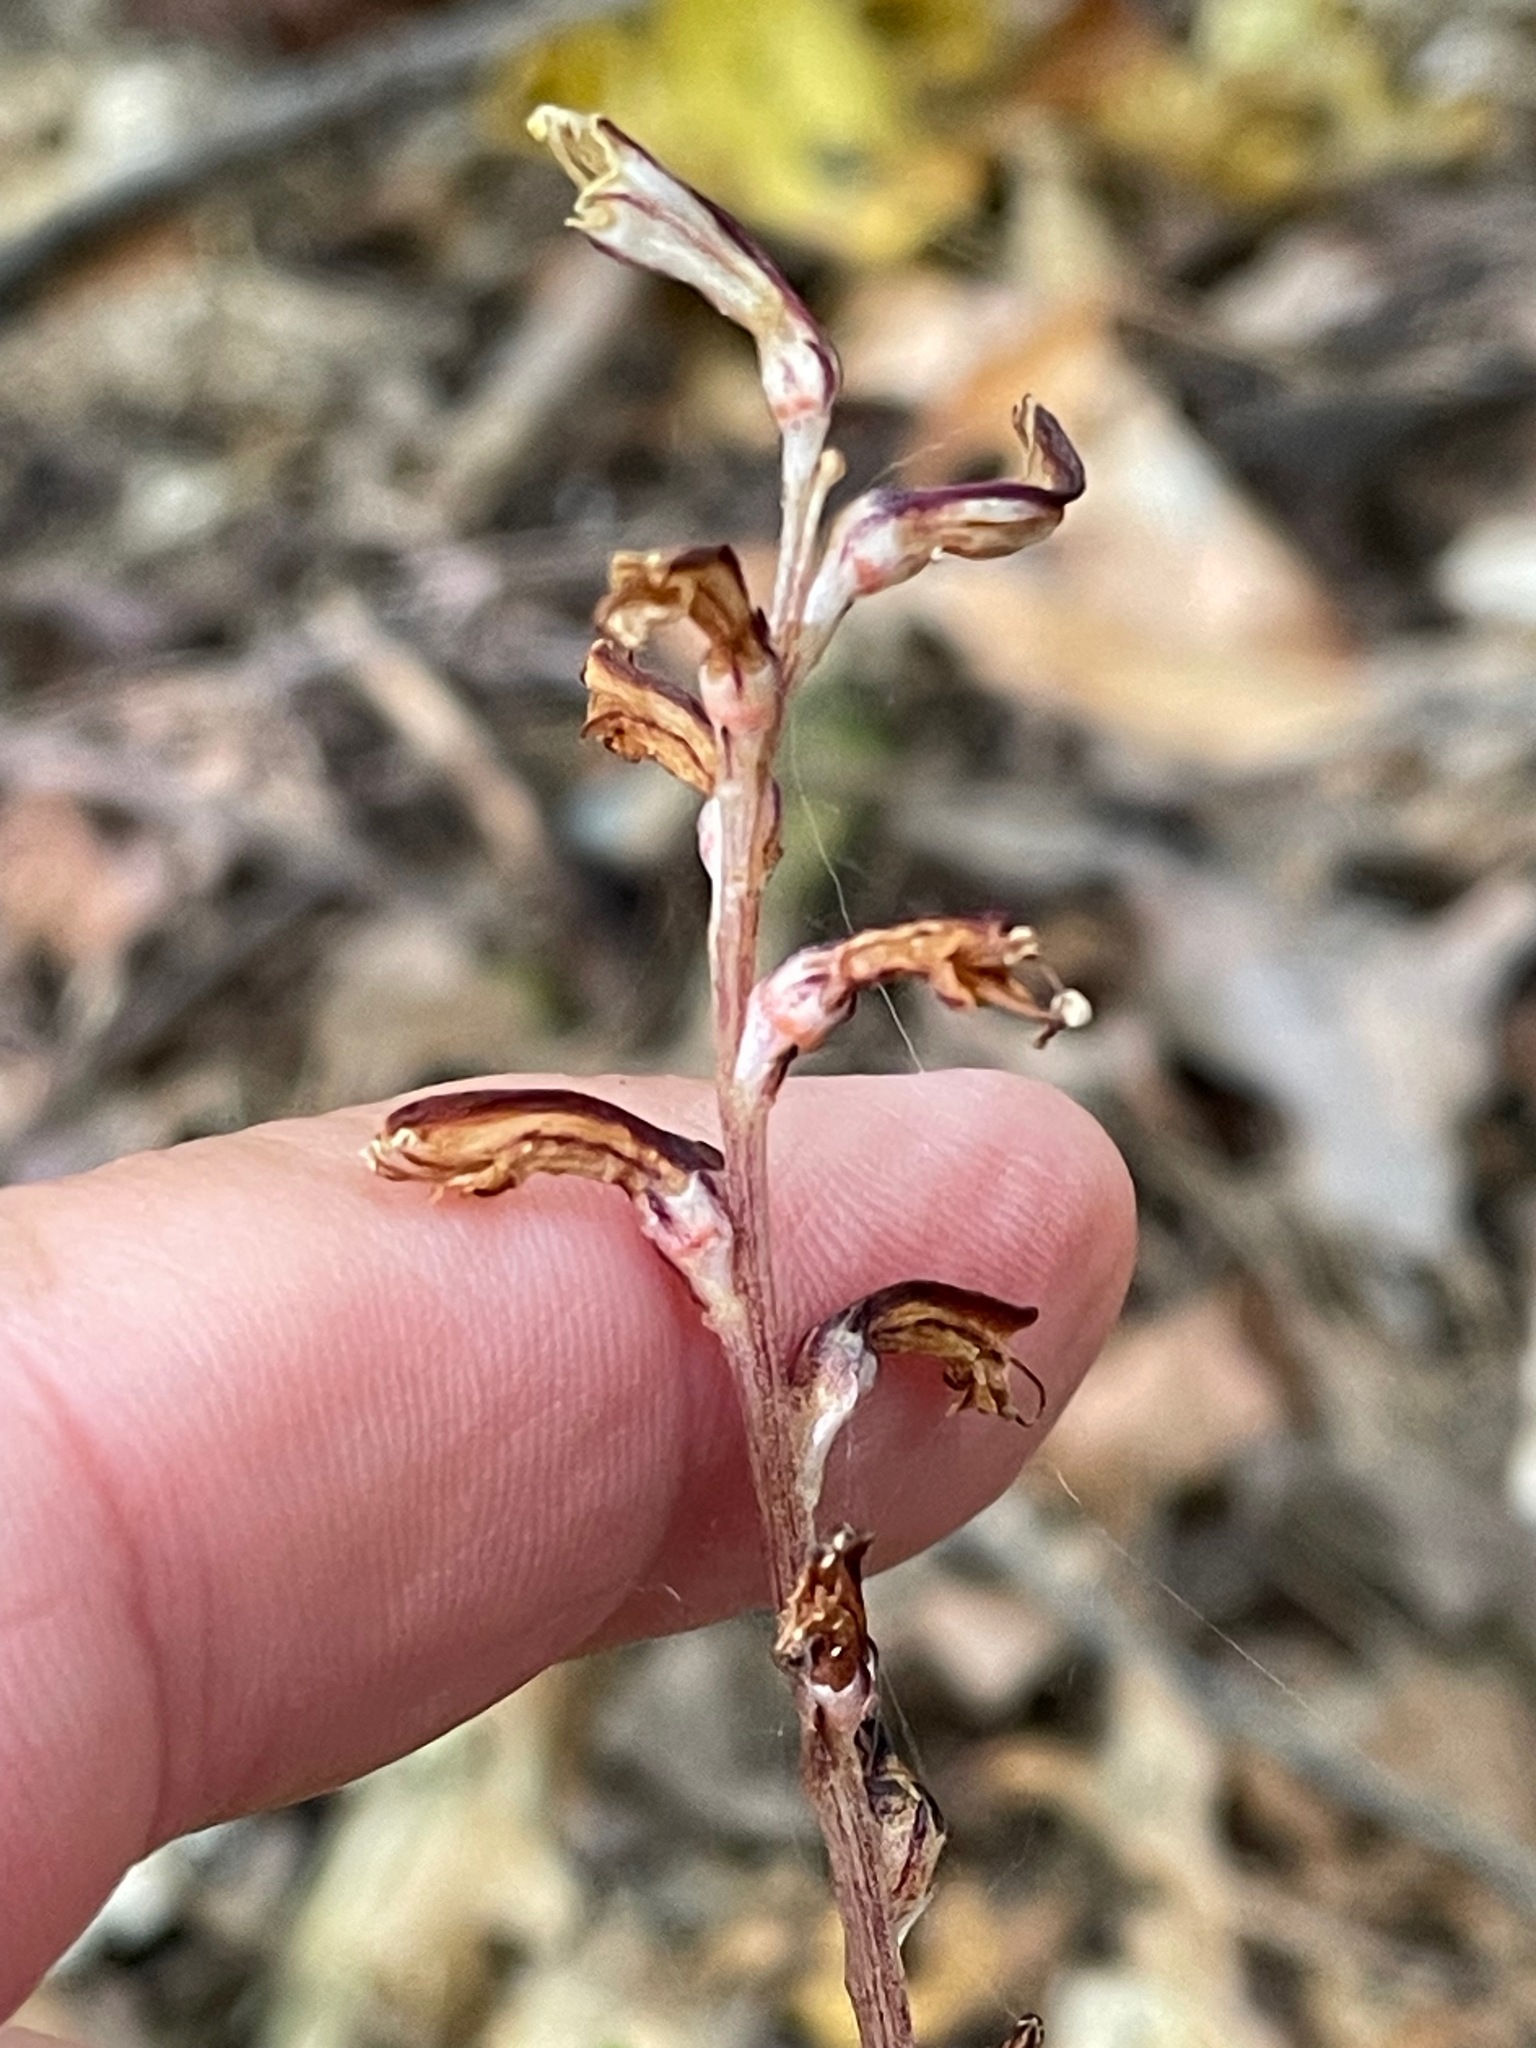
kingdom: Plantae
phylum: Tracheophyta
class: Magnoliopsida
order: Lamiales
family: Orobanchaceae
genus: Epifagus
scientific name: Epifagus virginiana
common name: Beechdrops
